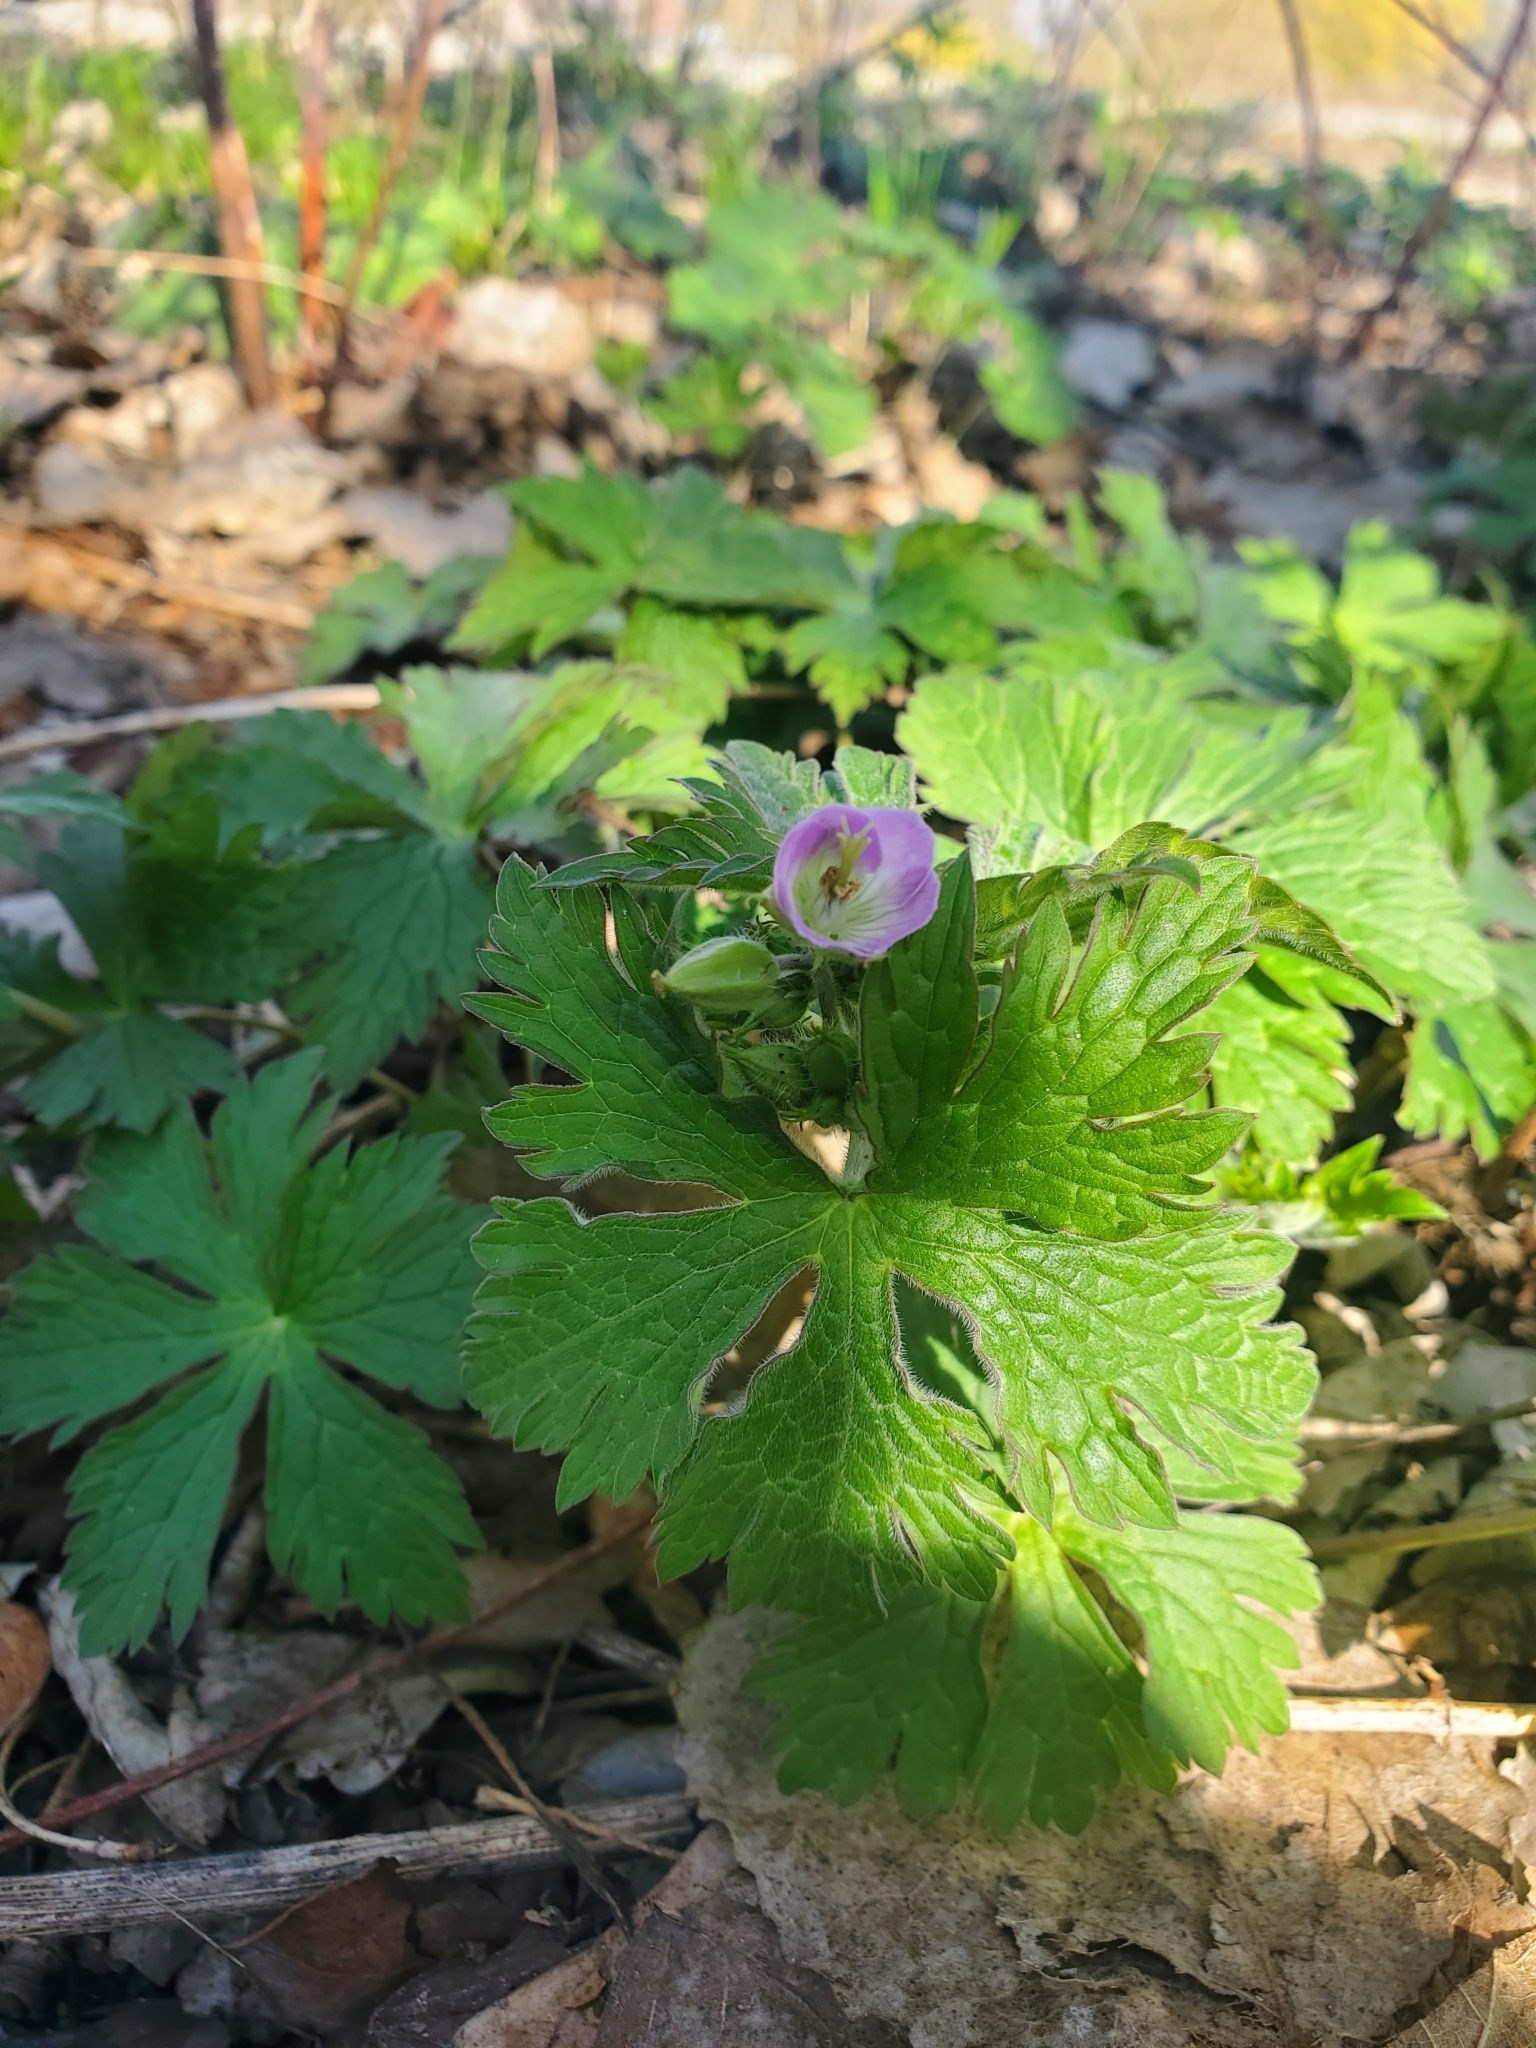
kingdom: Plantae
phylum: Tracheophyta
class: Magnoliopsida
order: Geraniales
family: Geraniaceae
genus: Geranium
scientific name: Geranium maculatum
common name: Spotted geranium
